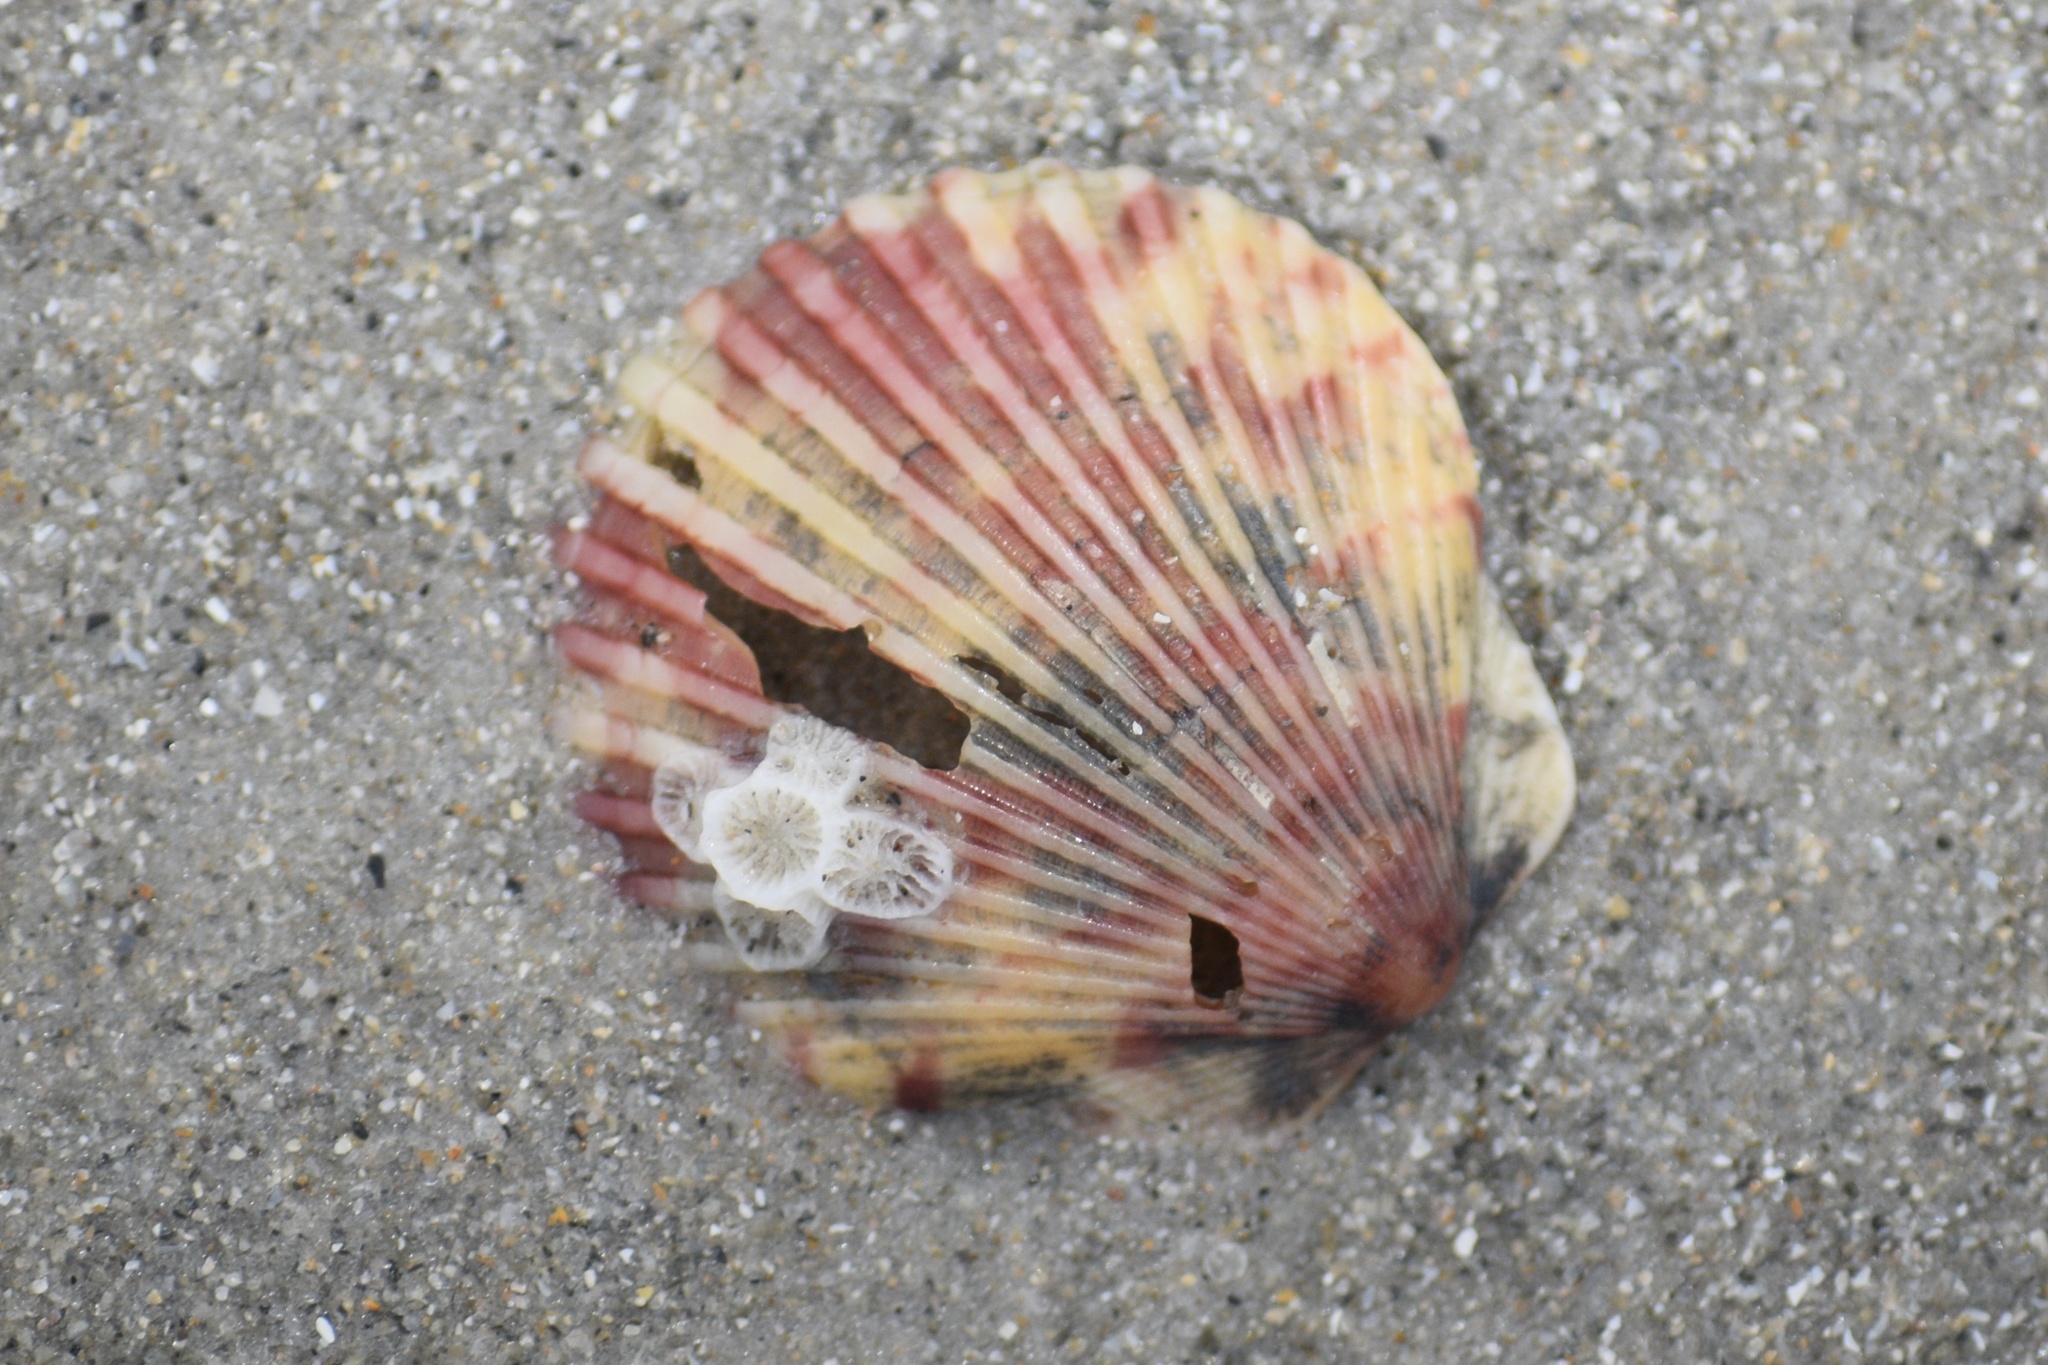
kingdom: Animalia
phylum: Cnidaria
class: Anthozoa
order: Scleractinia
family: Astrangiidae
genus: Astrangia
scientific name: Astrangia poculata
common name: Northern star coral
